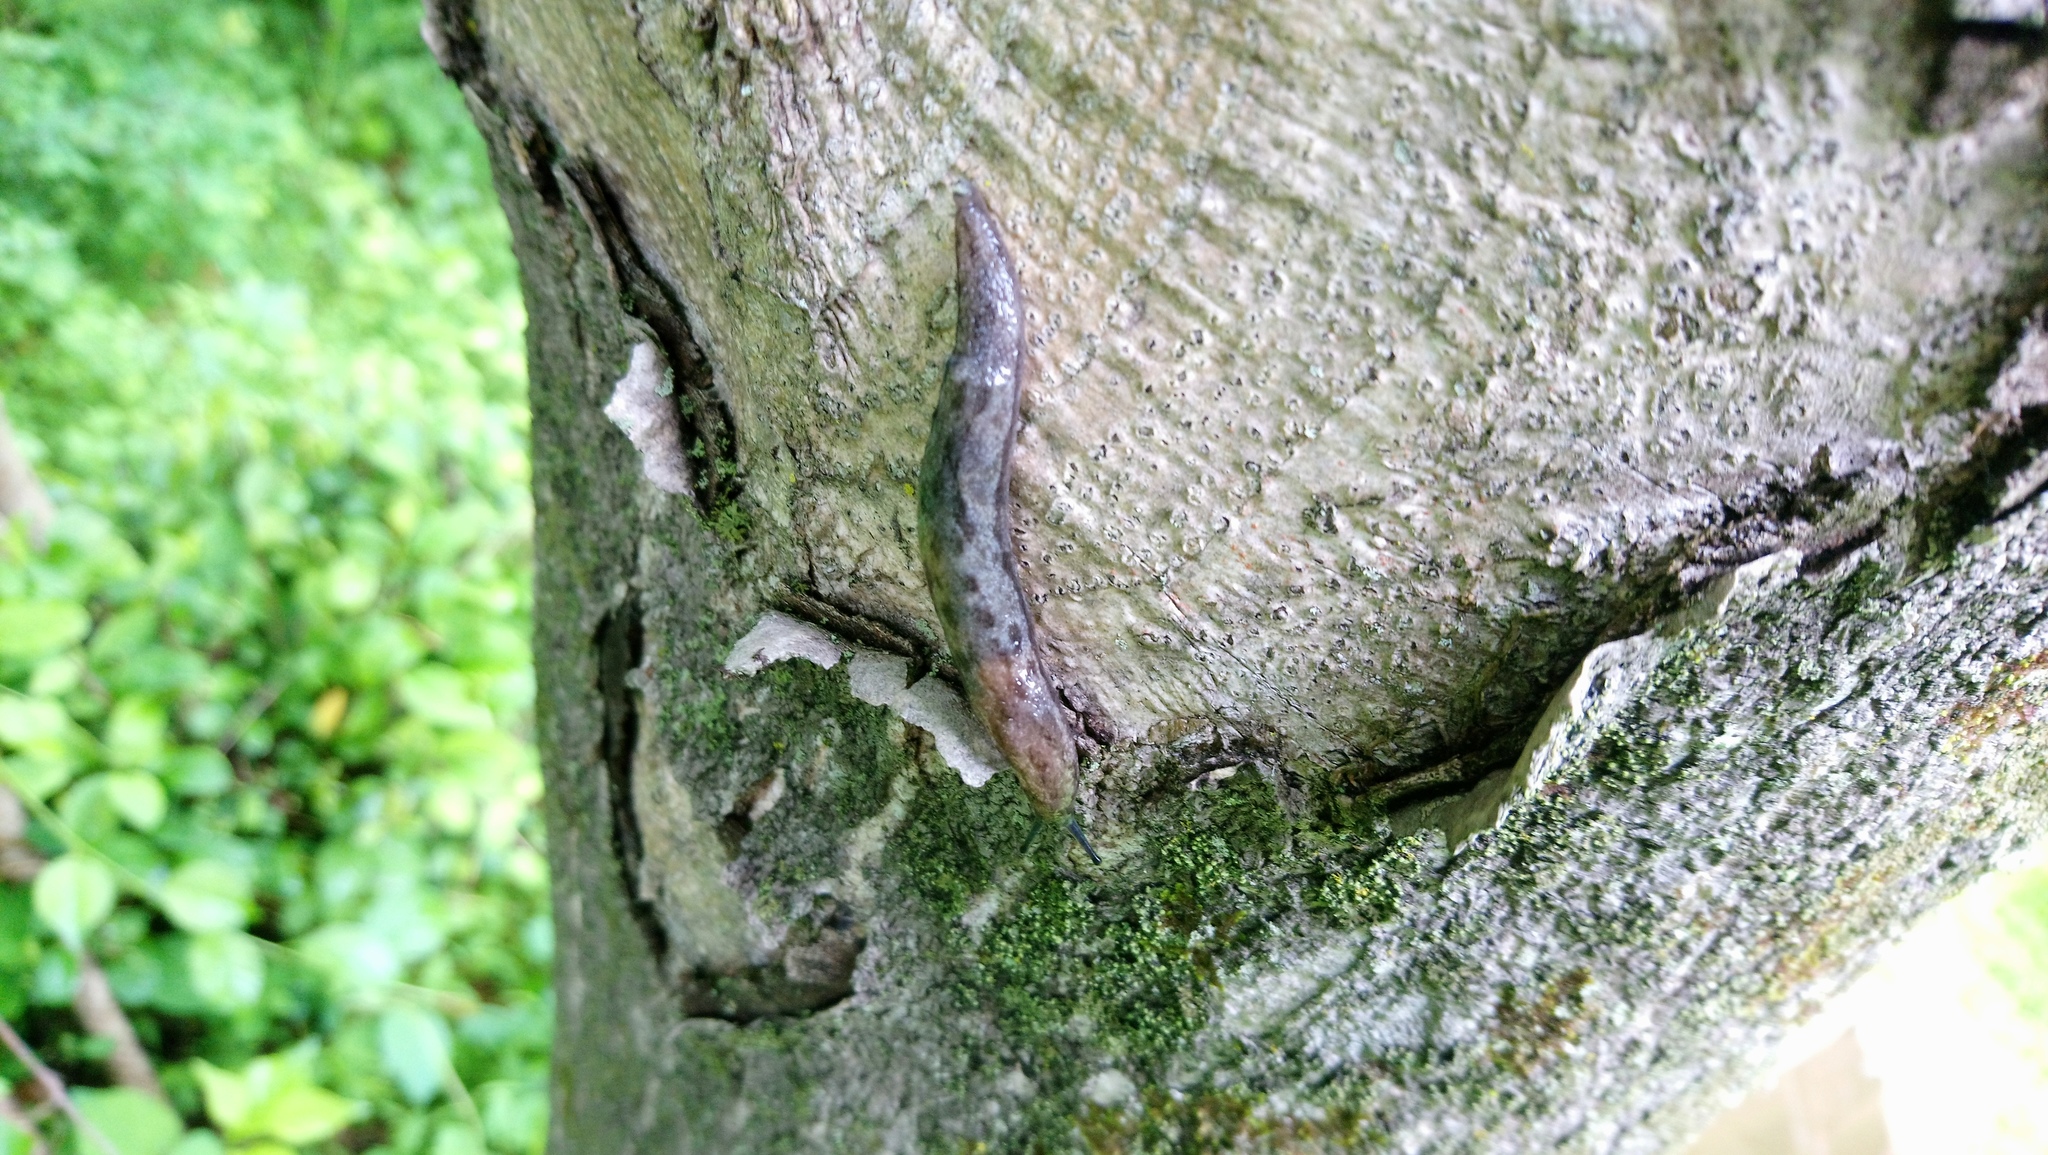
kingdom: Animalia
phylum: Mollusca
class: Gastropoda
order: Stylommatophora
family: Philomycidae
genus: Megapallifera
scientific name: Megapallifera mutabilis
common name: Changeable mantleslug
